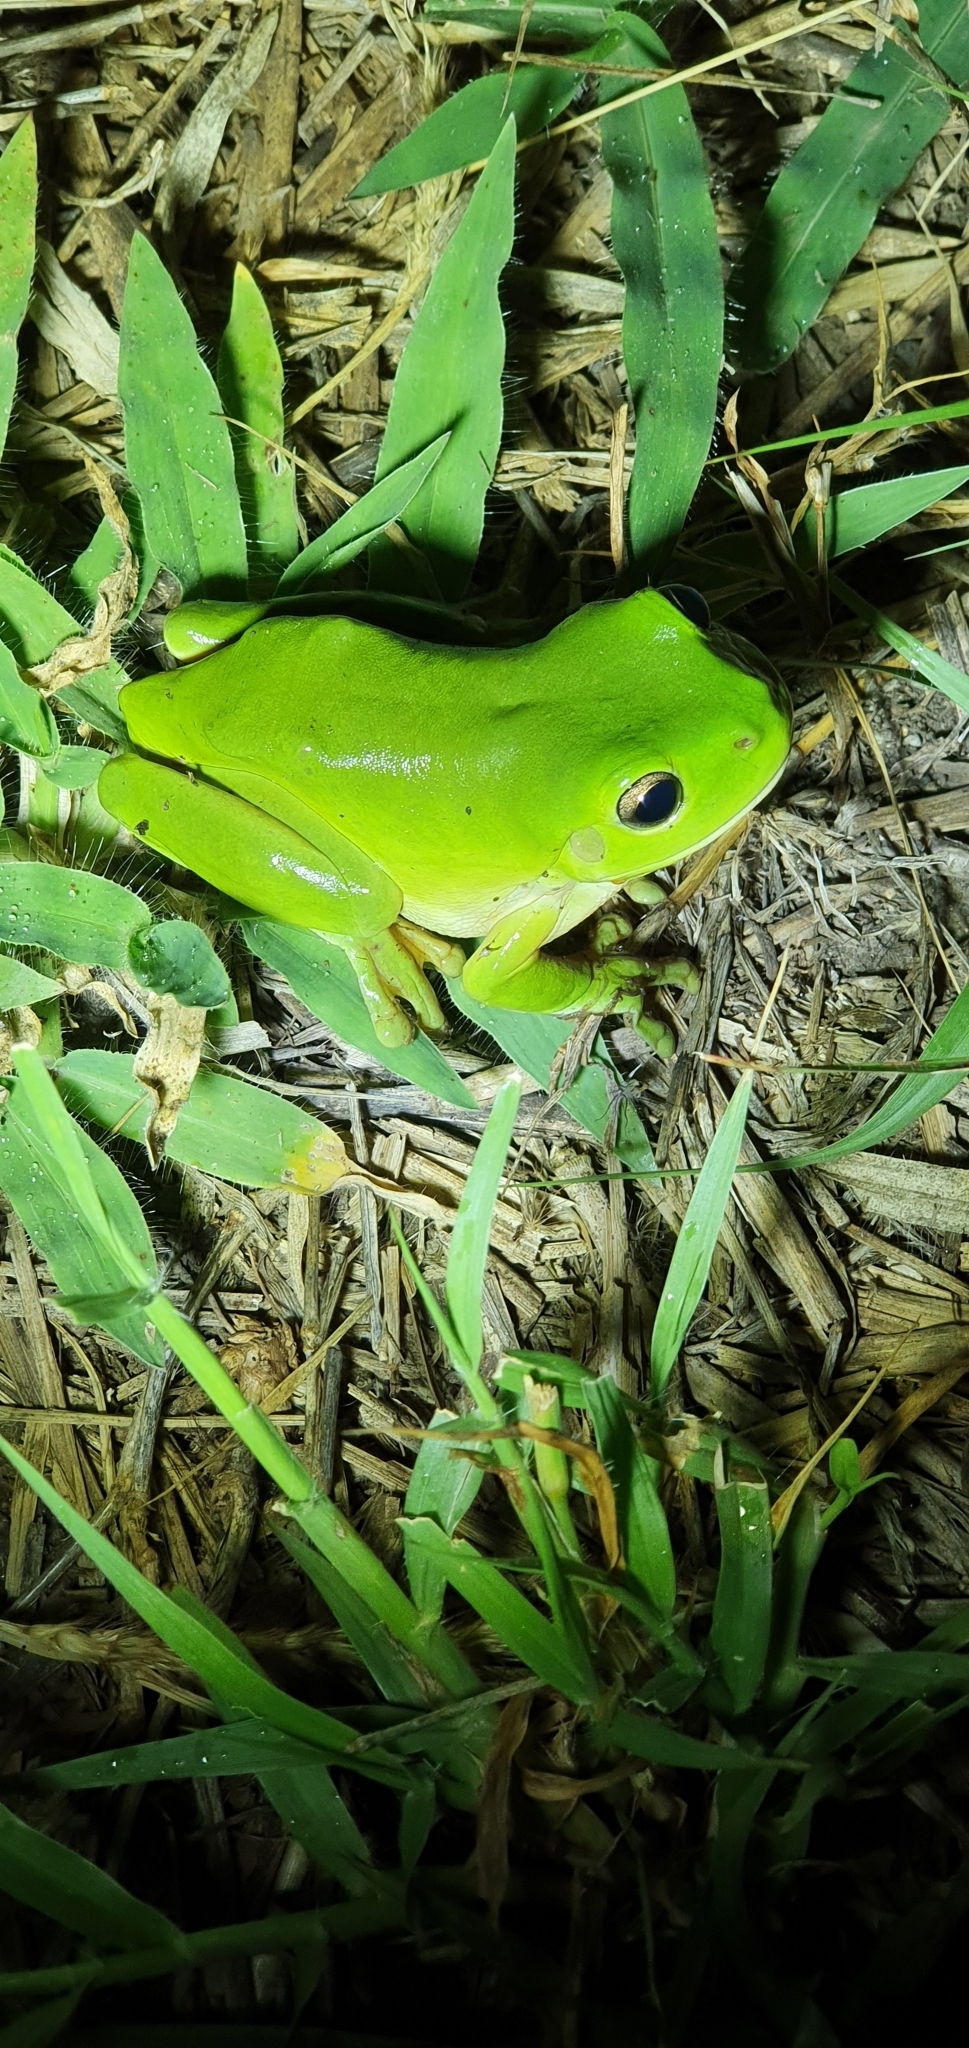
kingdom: Animalia
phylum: Chordata
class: Amphibia
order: Anura
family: Pelodryadidae
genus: Ranoidea
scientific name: Ranoidea caerulea
